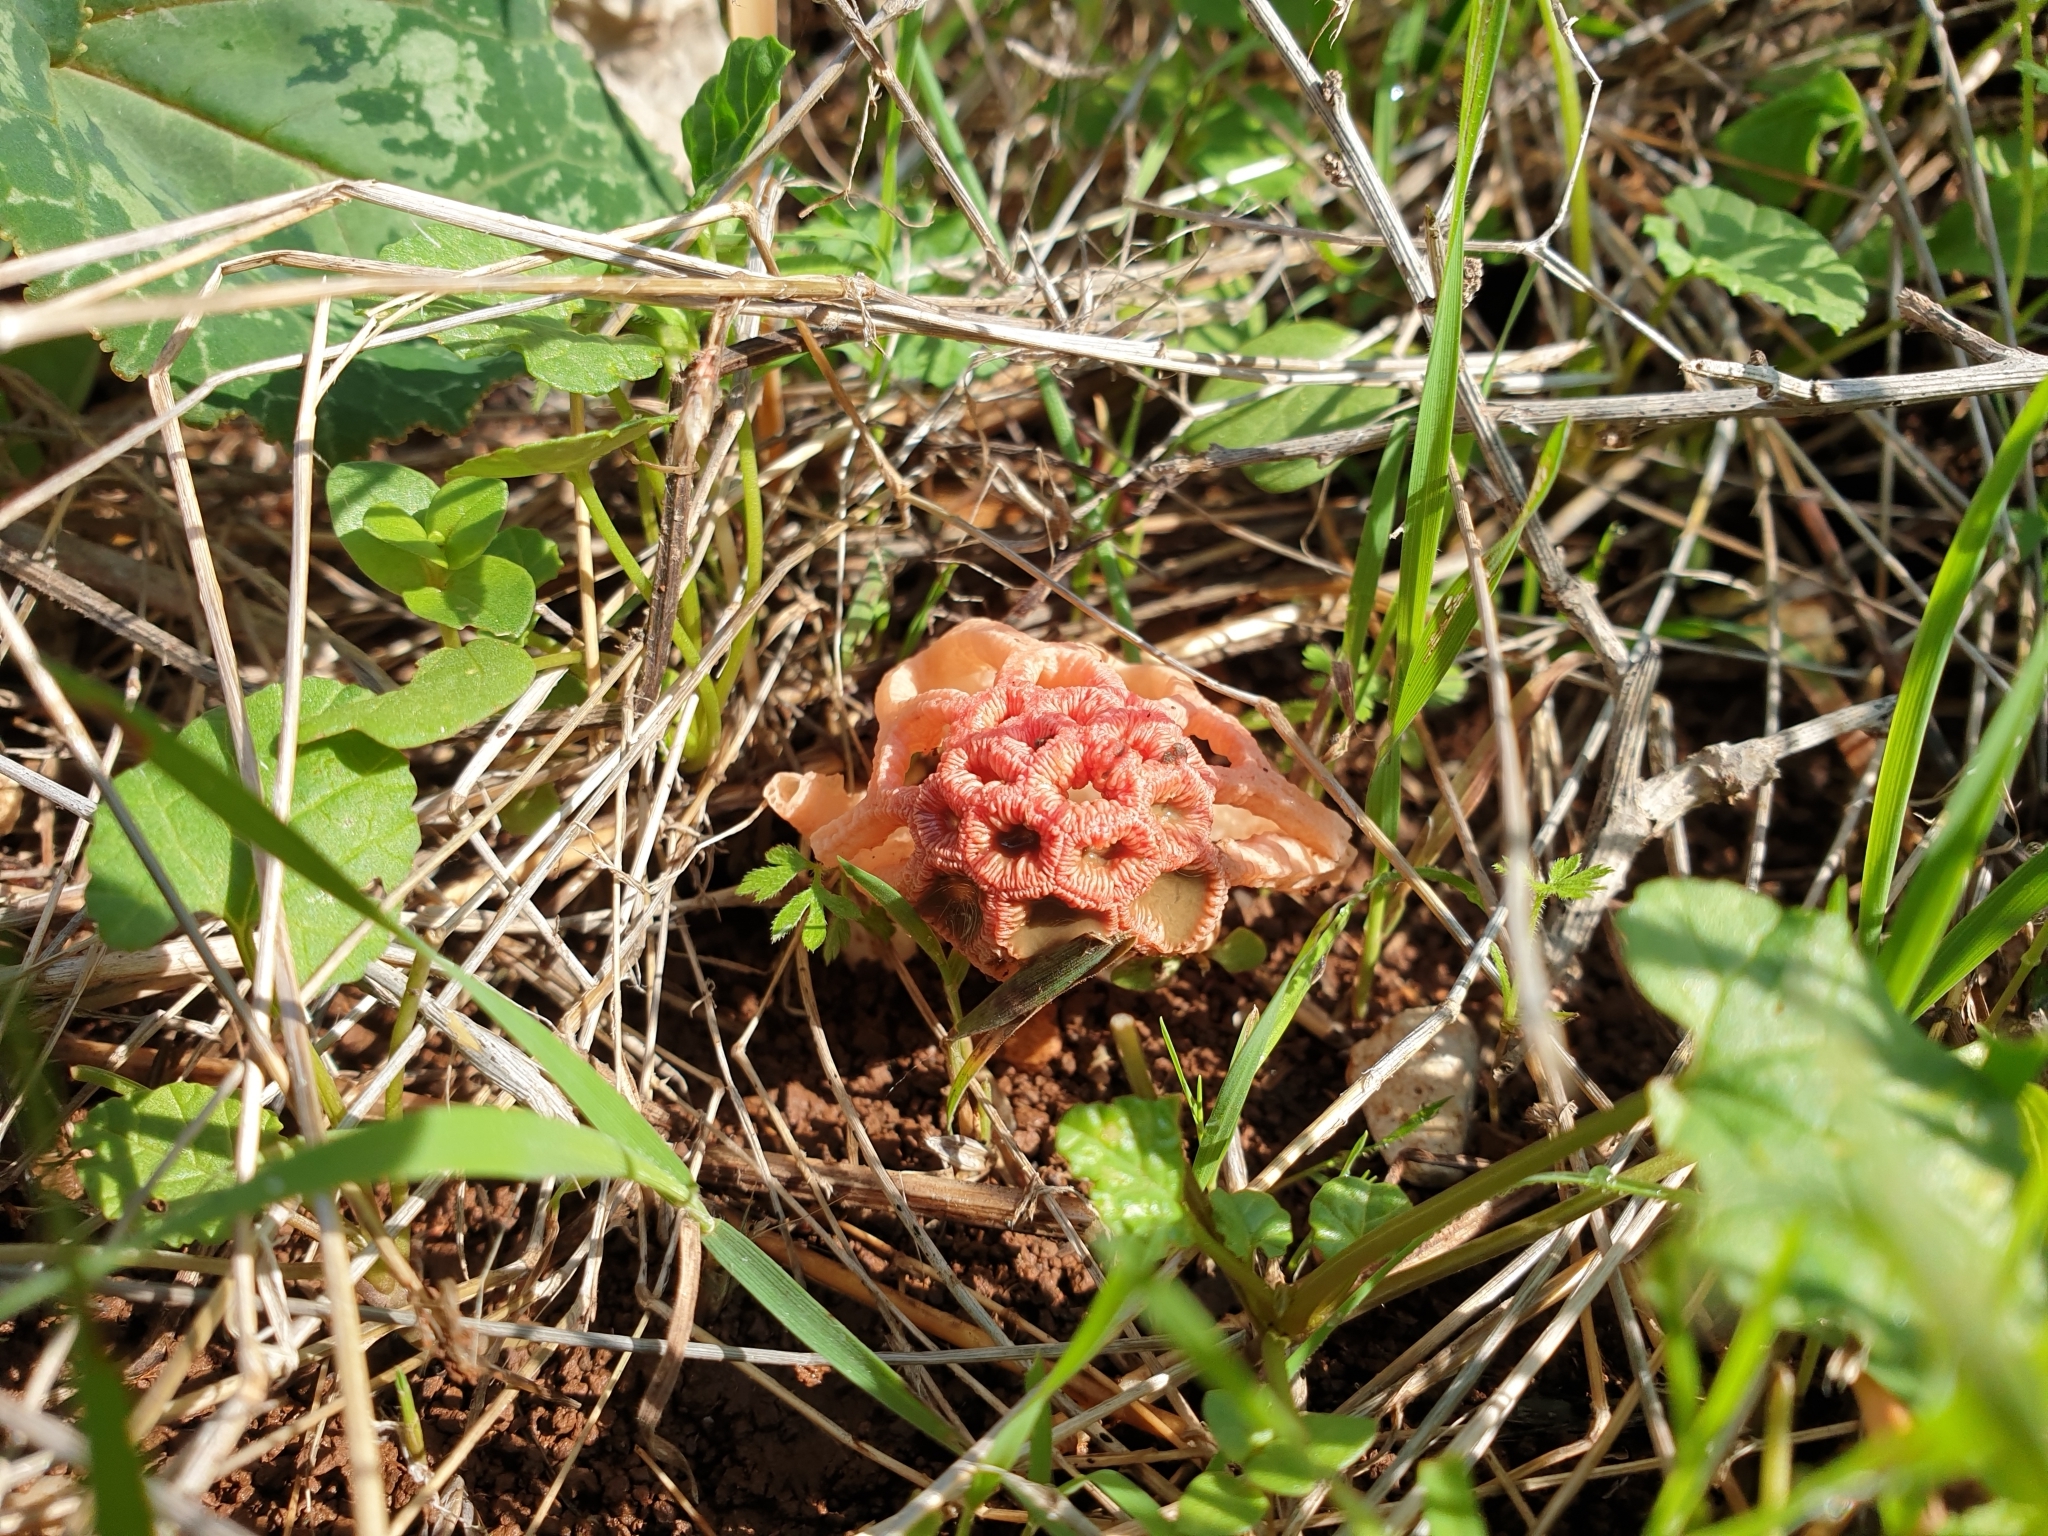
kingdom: Fungi
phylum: Basidiomycota
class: Agaricomycetes
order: Phallales
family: Phallaceae
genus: Colus
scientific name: Colus hirudinosus
